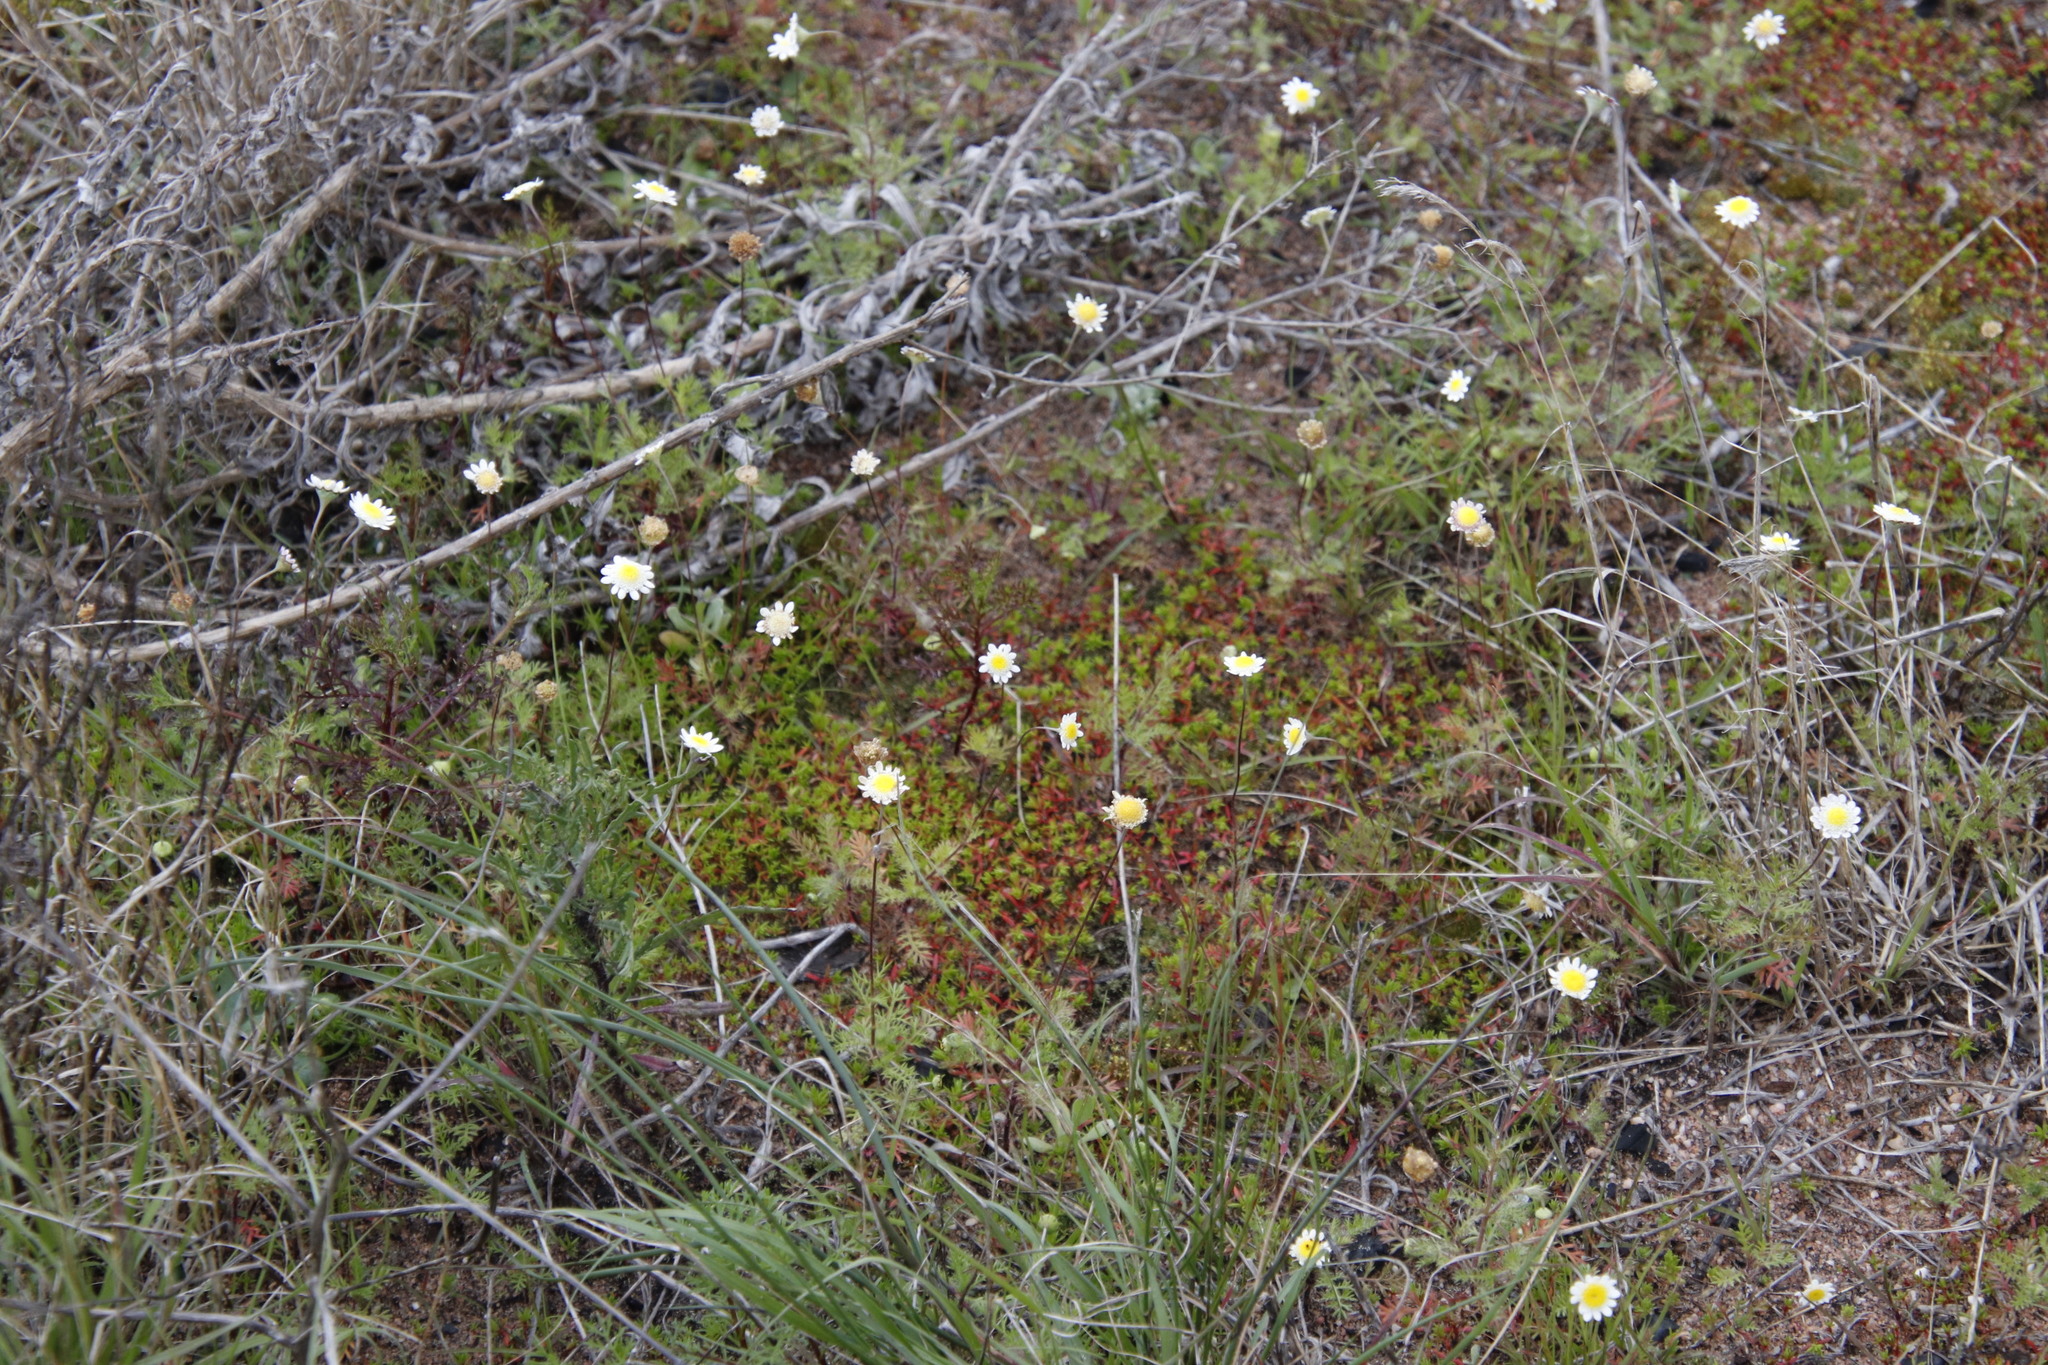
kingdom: Plantae
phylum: Tracheophyta
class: Magnoliopsida
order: Asterales
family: Asteraceae
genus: Cotula
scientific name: Cotula turbinata
